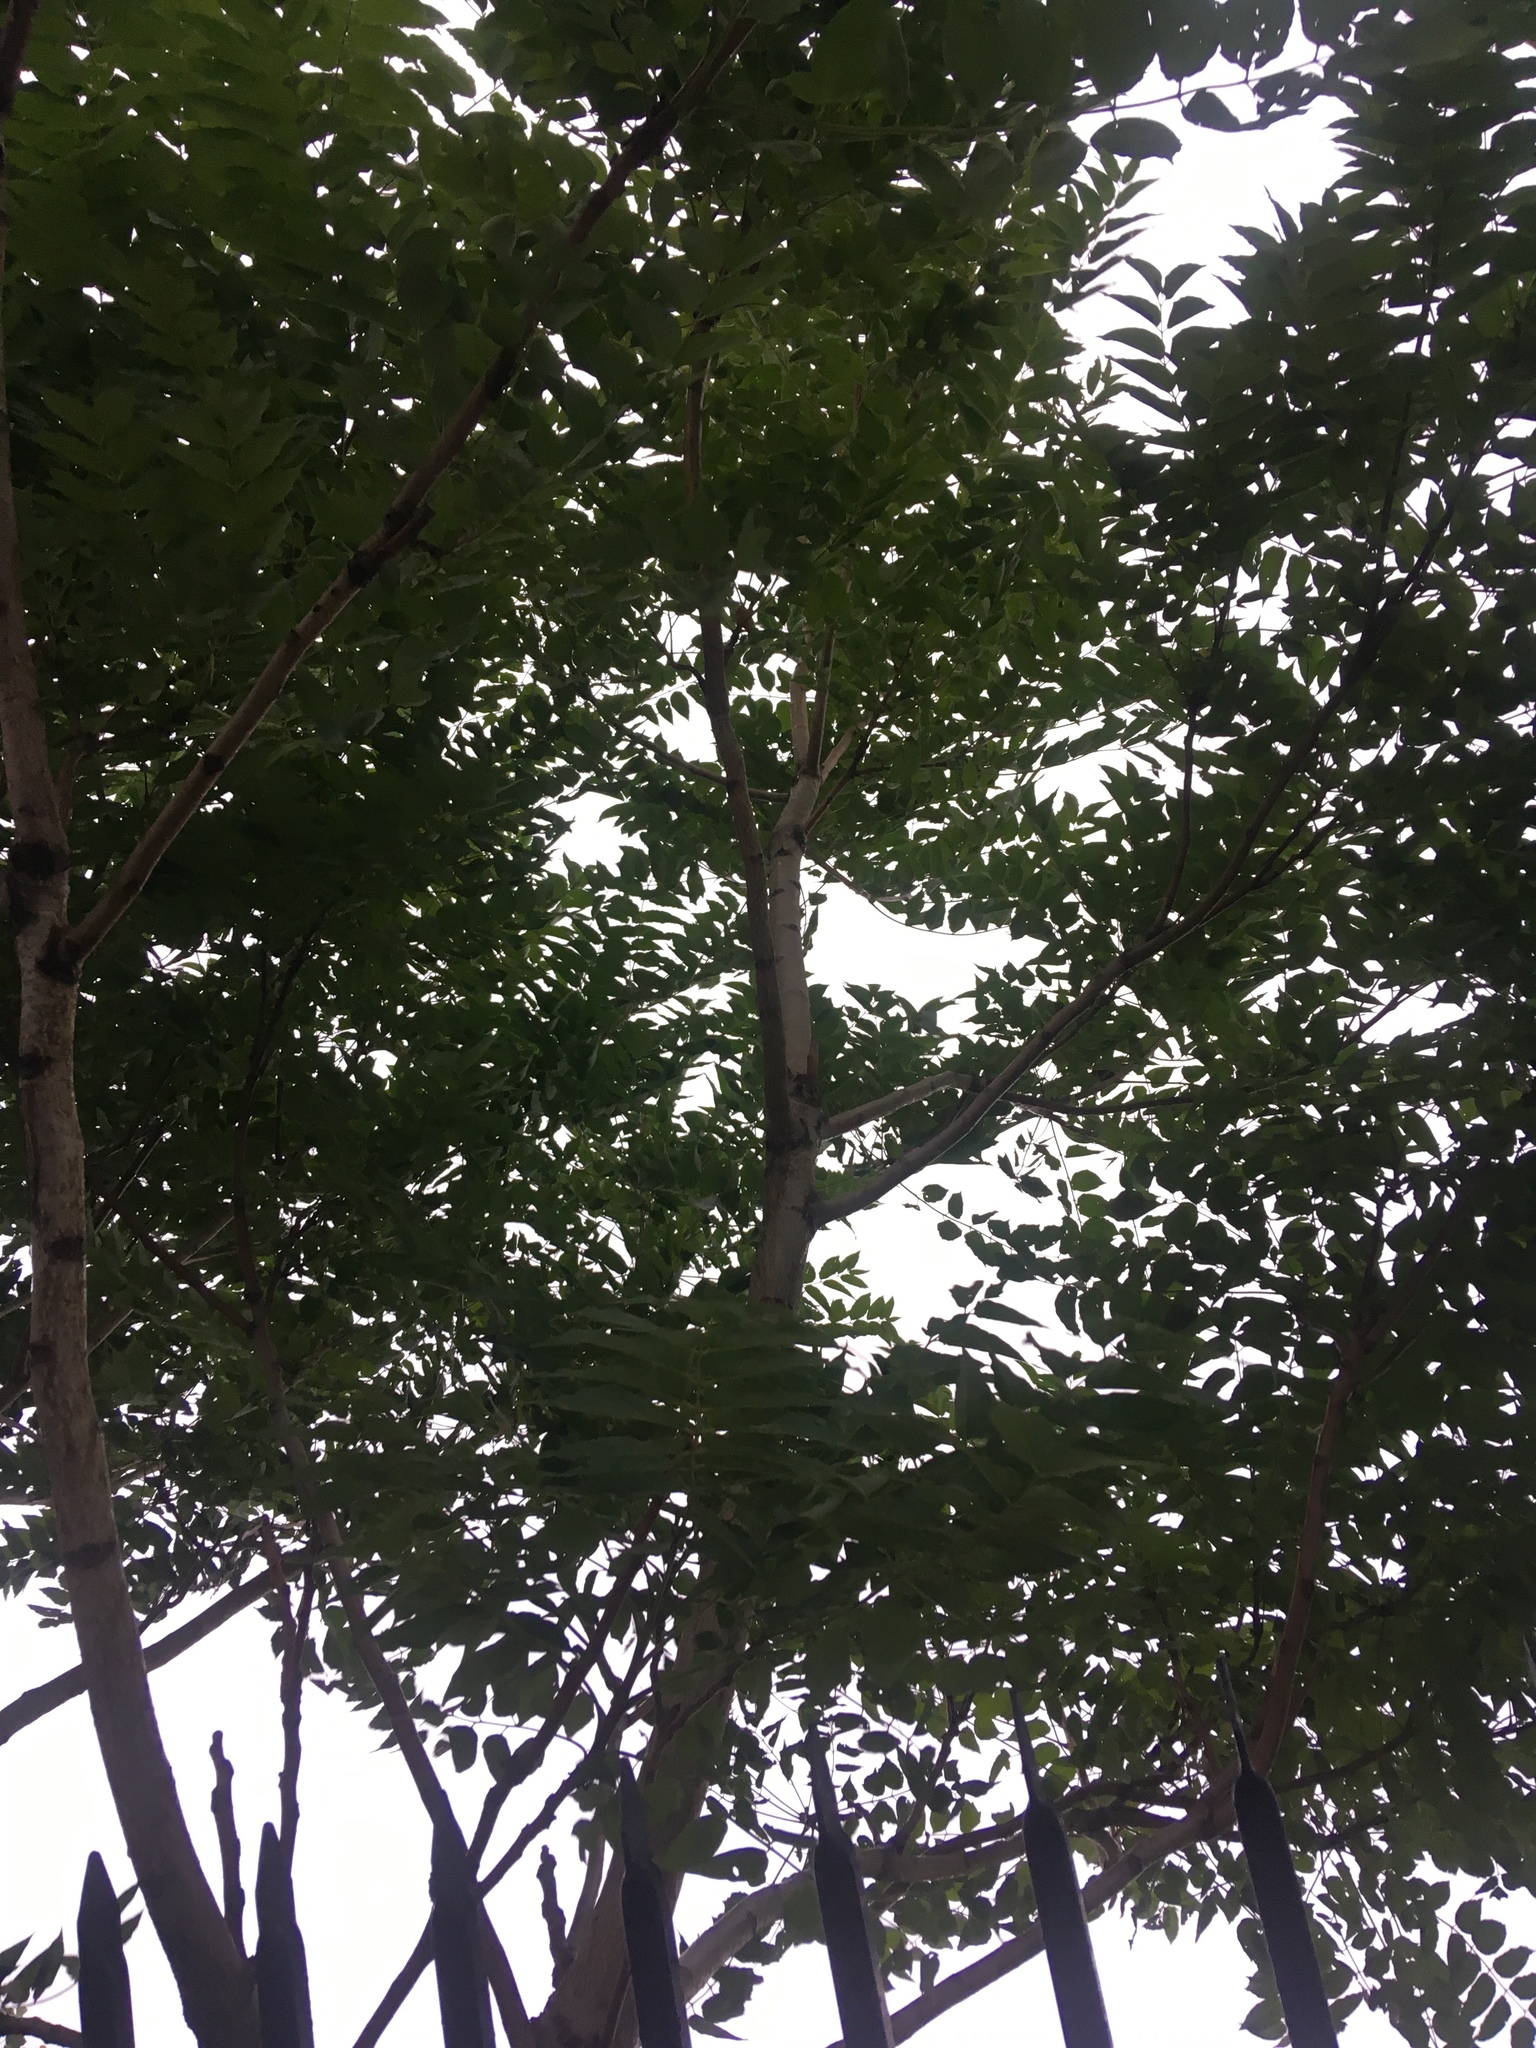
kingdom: Plantae
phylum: Tracheophyta
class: Magnoliopsida
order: Sapindales
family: Simaroubaceae
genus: Ailanthus
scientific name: Ailanthus altissima
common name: Tree-of-heaven
